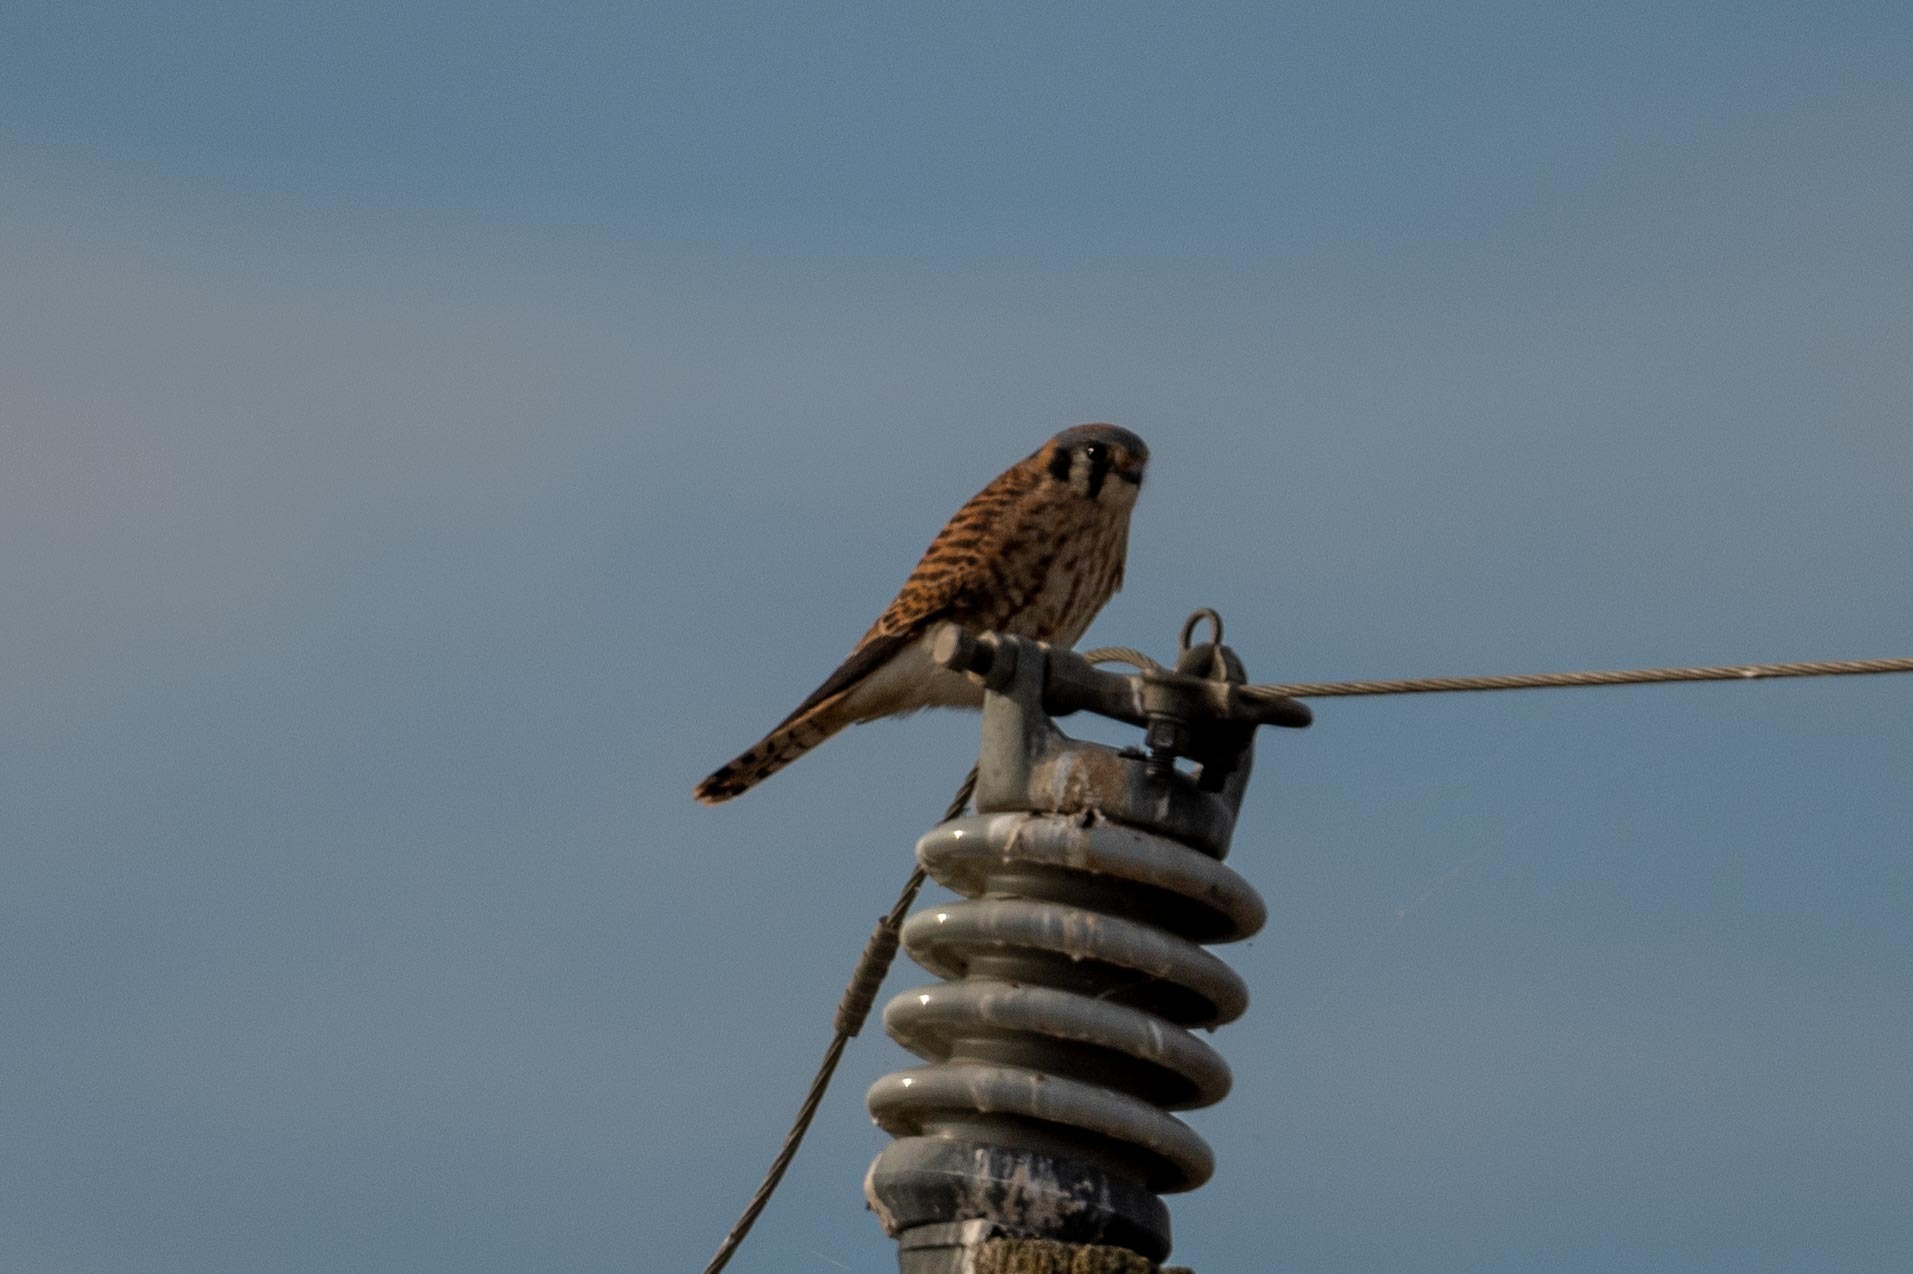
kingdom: Animalia
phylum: Chordata
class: Aves
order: Falconiformes
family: Falconidae
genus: Falco
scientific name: Falco sparverius
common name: American kestrel
